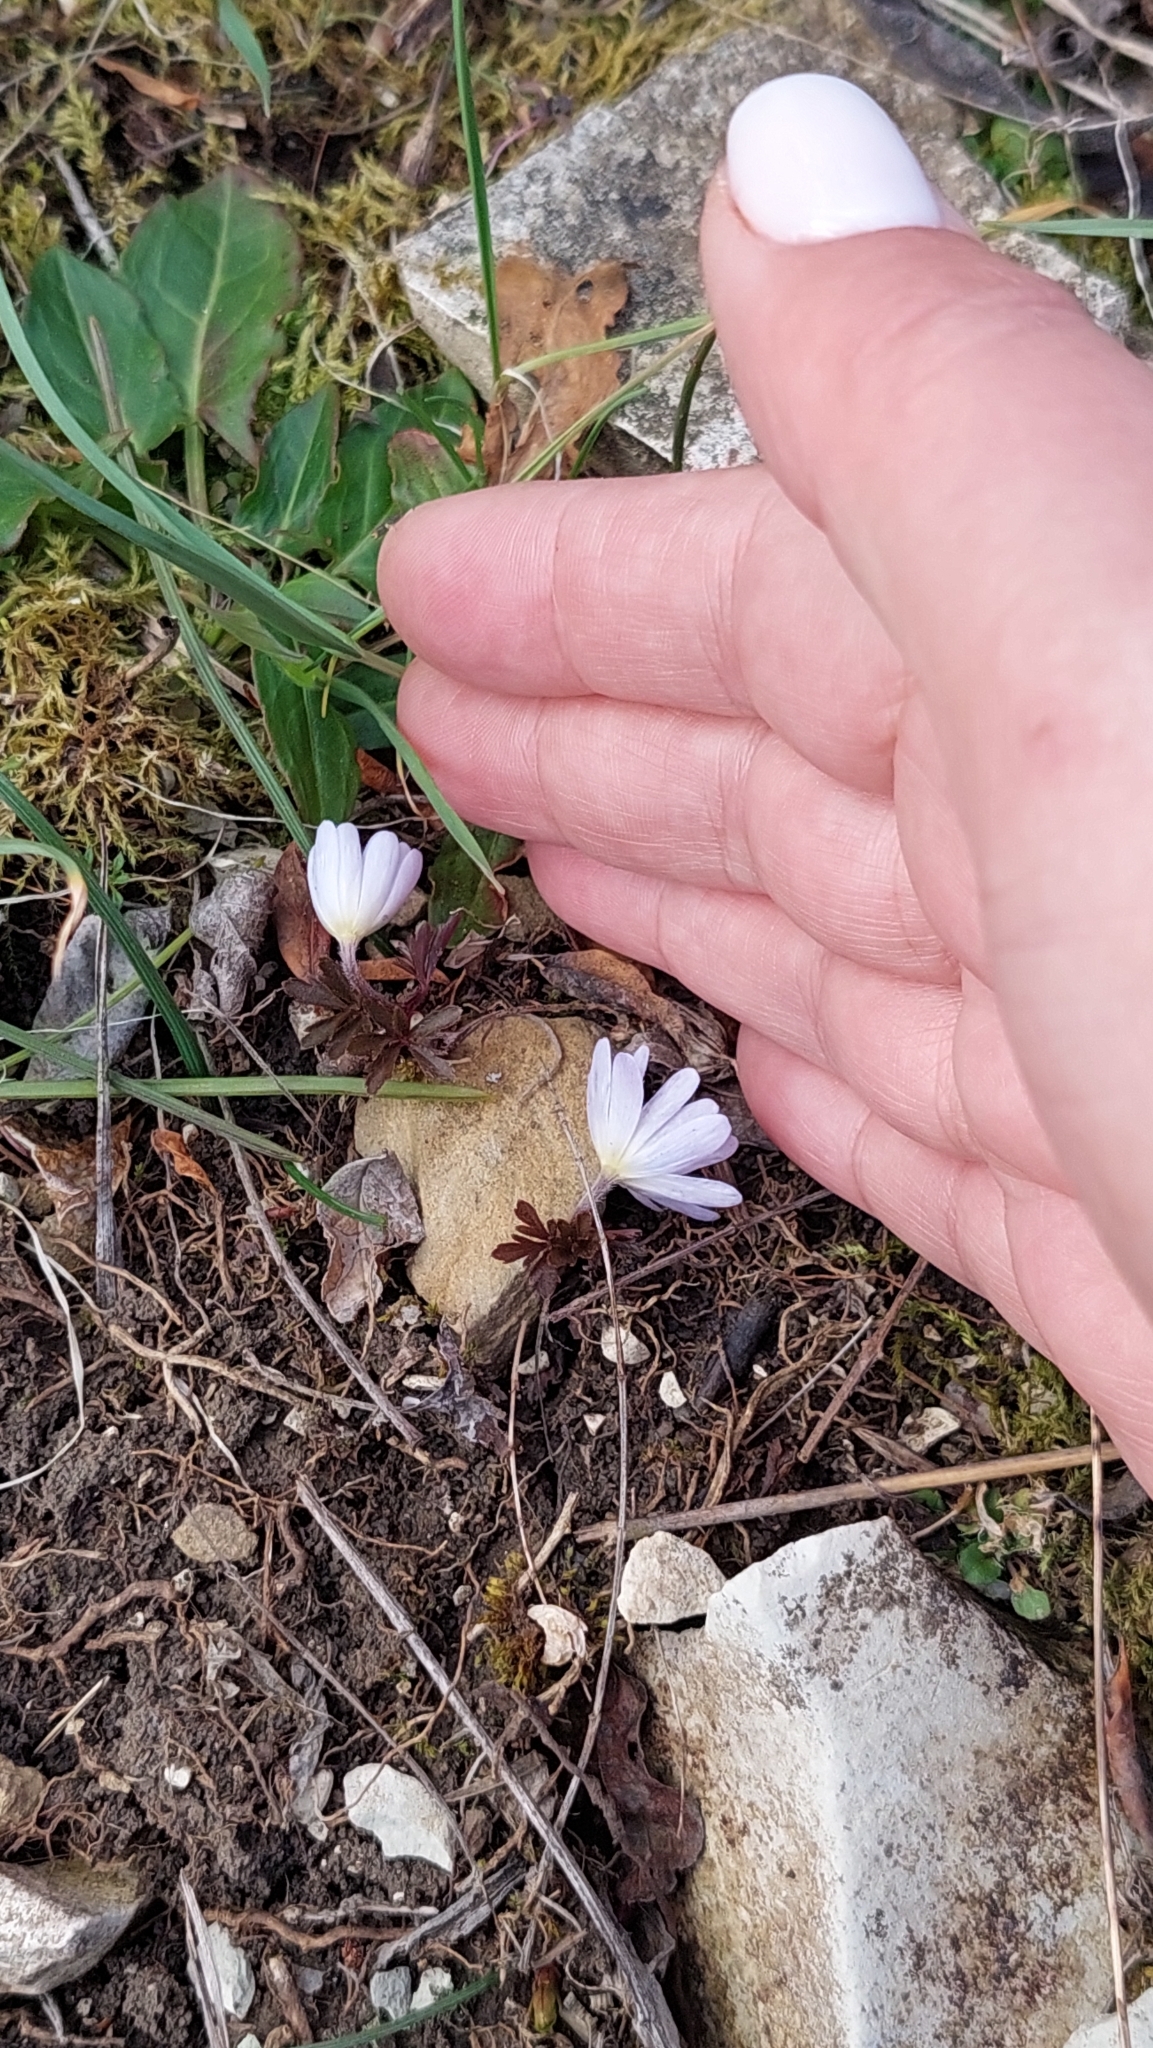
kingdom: Plantae
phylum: Tracheophyta
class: Magnoliopsida
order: Ranunculales
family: Ranunculaceae
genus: Anemone
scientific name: Anemone blanda
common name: Balkan anemone
